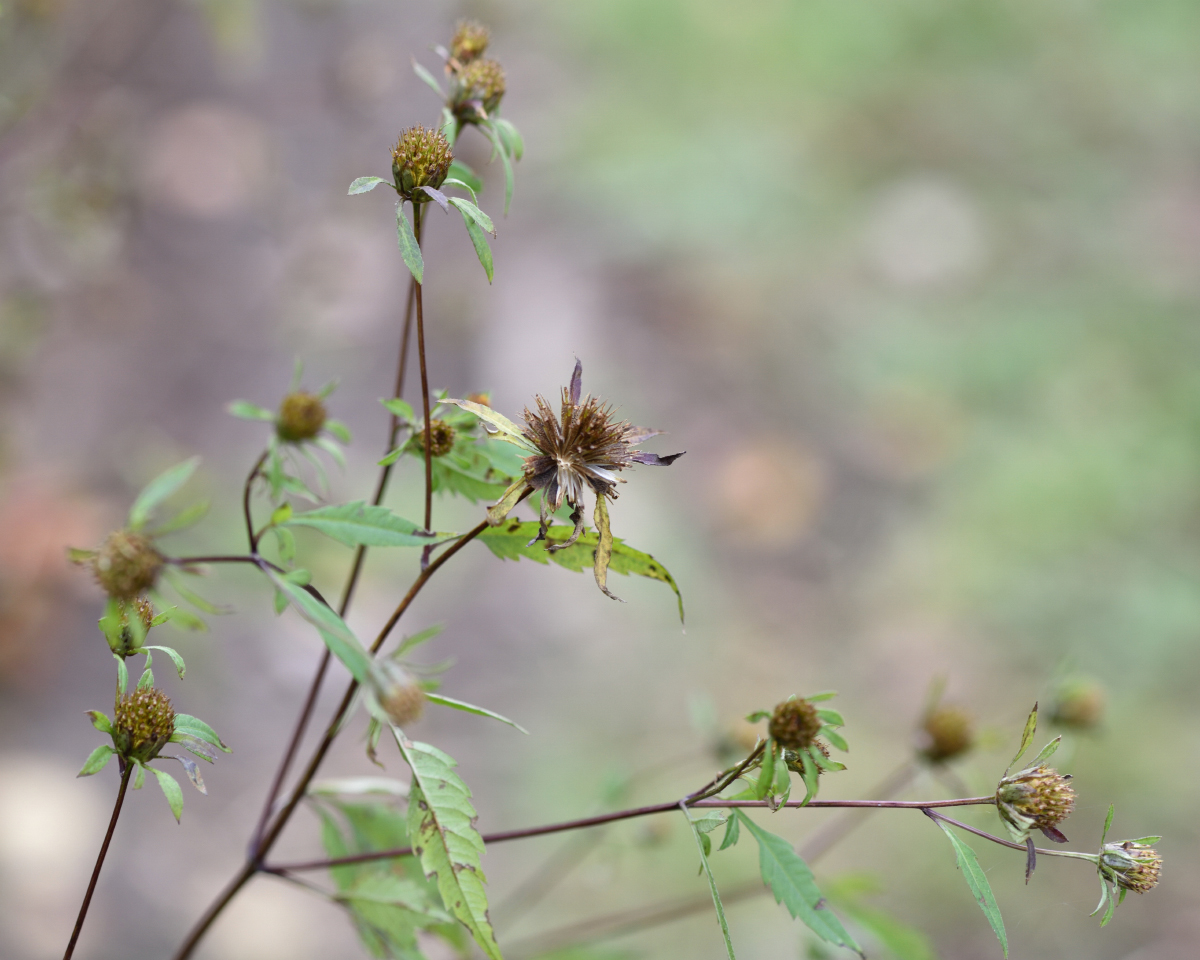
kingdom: Plantae
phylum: Tracheophyta
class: Magnoliopsida
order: Asterales
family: Asteraceae
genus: Bidens
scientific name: Bidens frondosa
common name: Beggarticks
